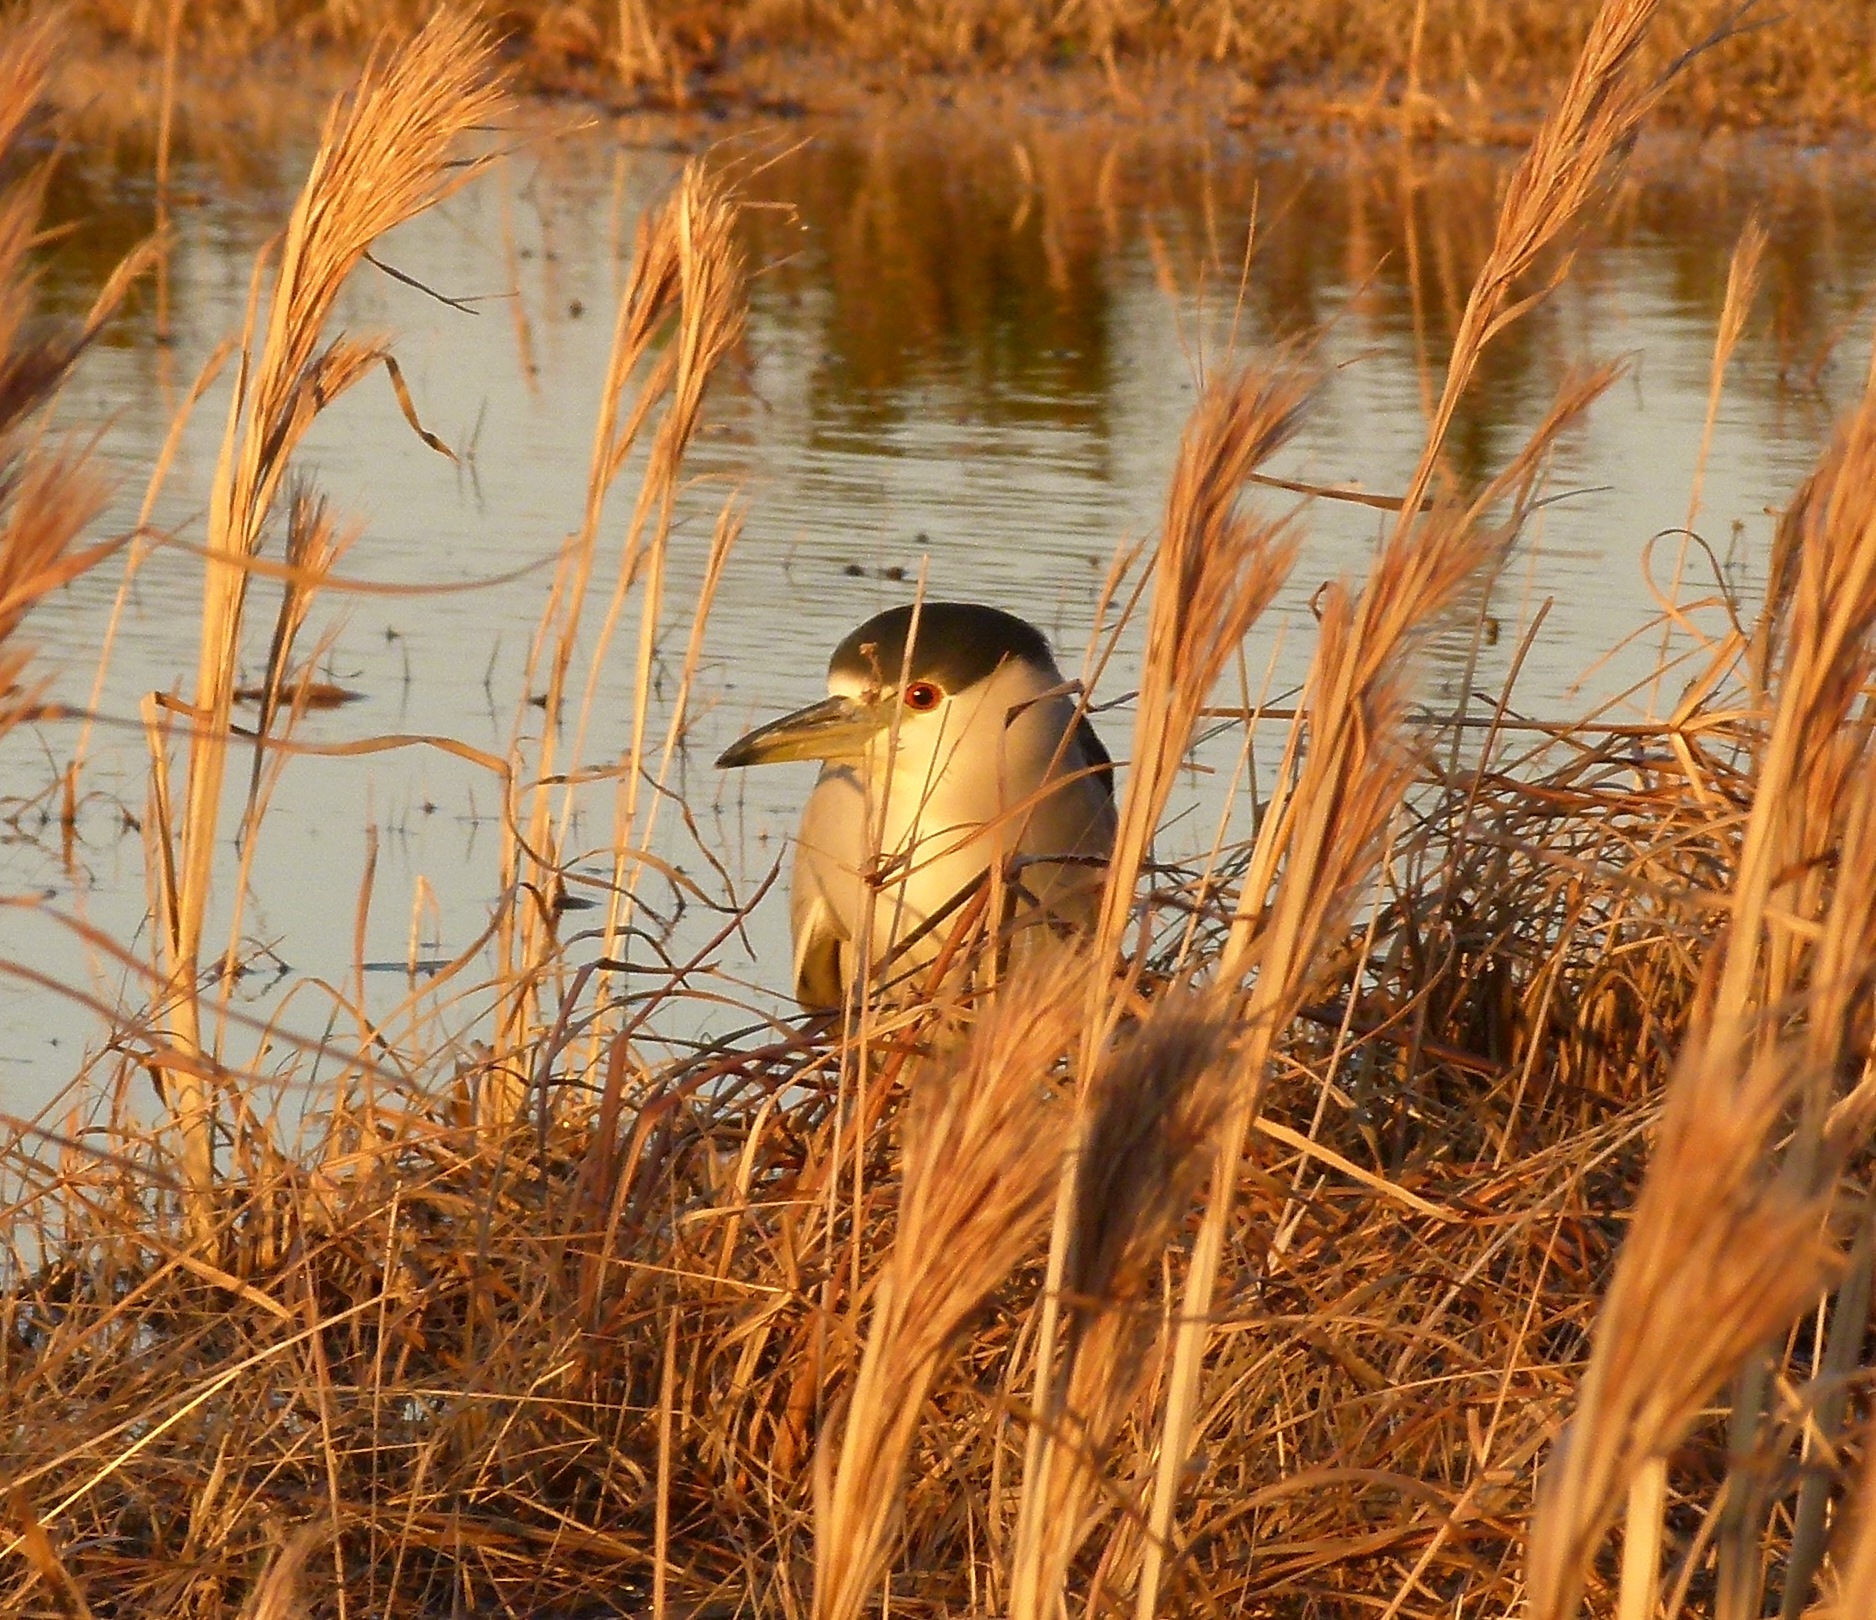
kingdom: Animalia
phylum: Chordata
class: Aves
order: Pelecaniformes
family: Ardeidae
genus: Nycticorax
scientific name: Nycticorax nycticorax
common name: Black-crowned night heron
